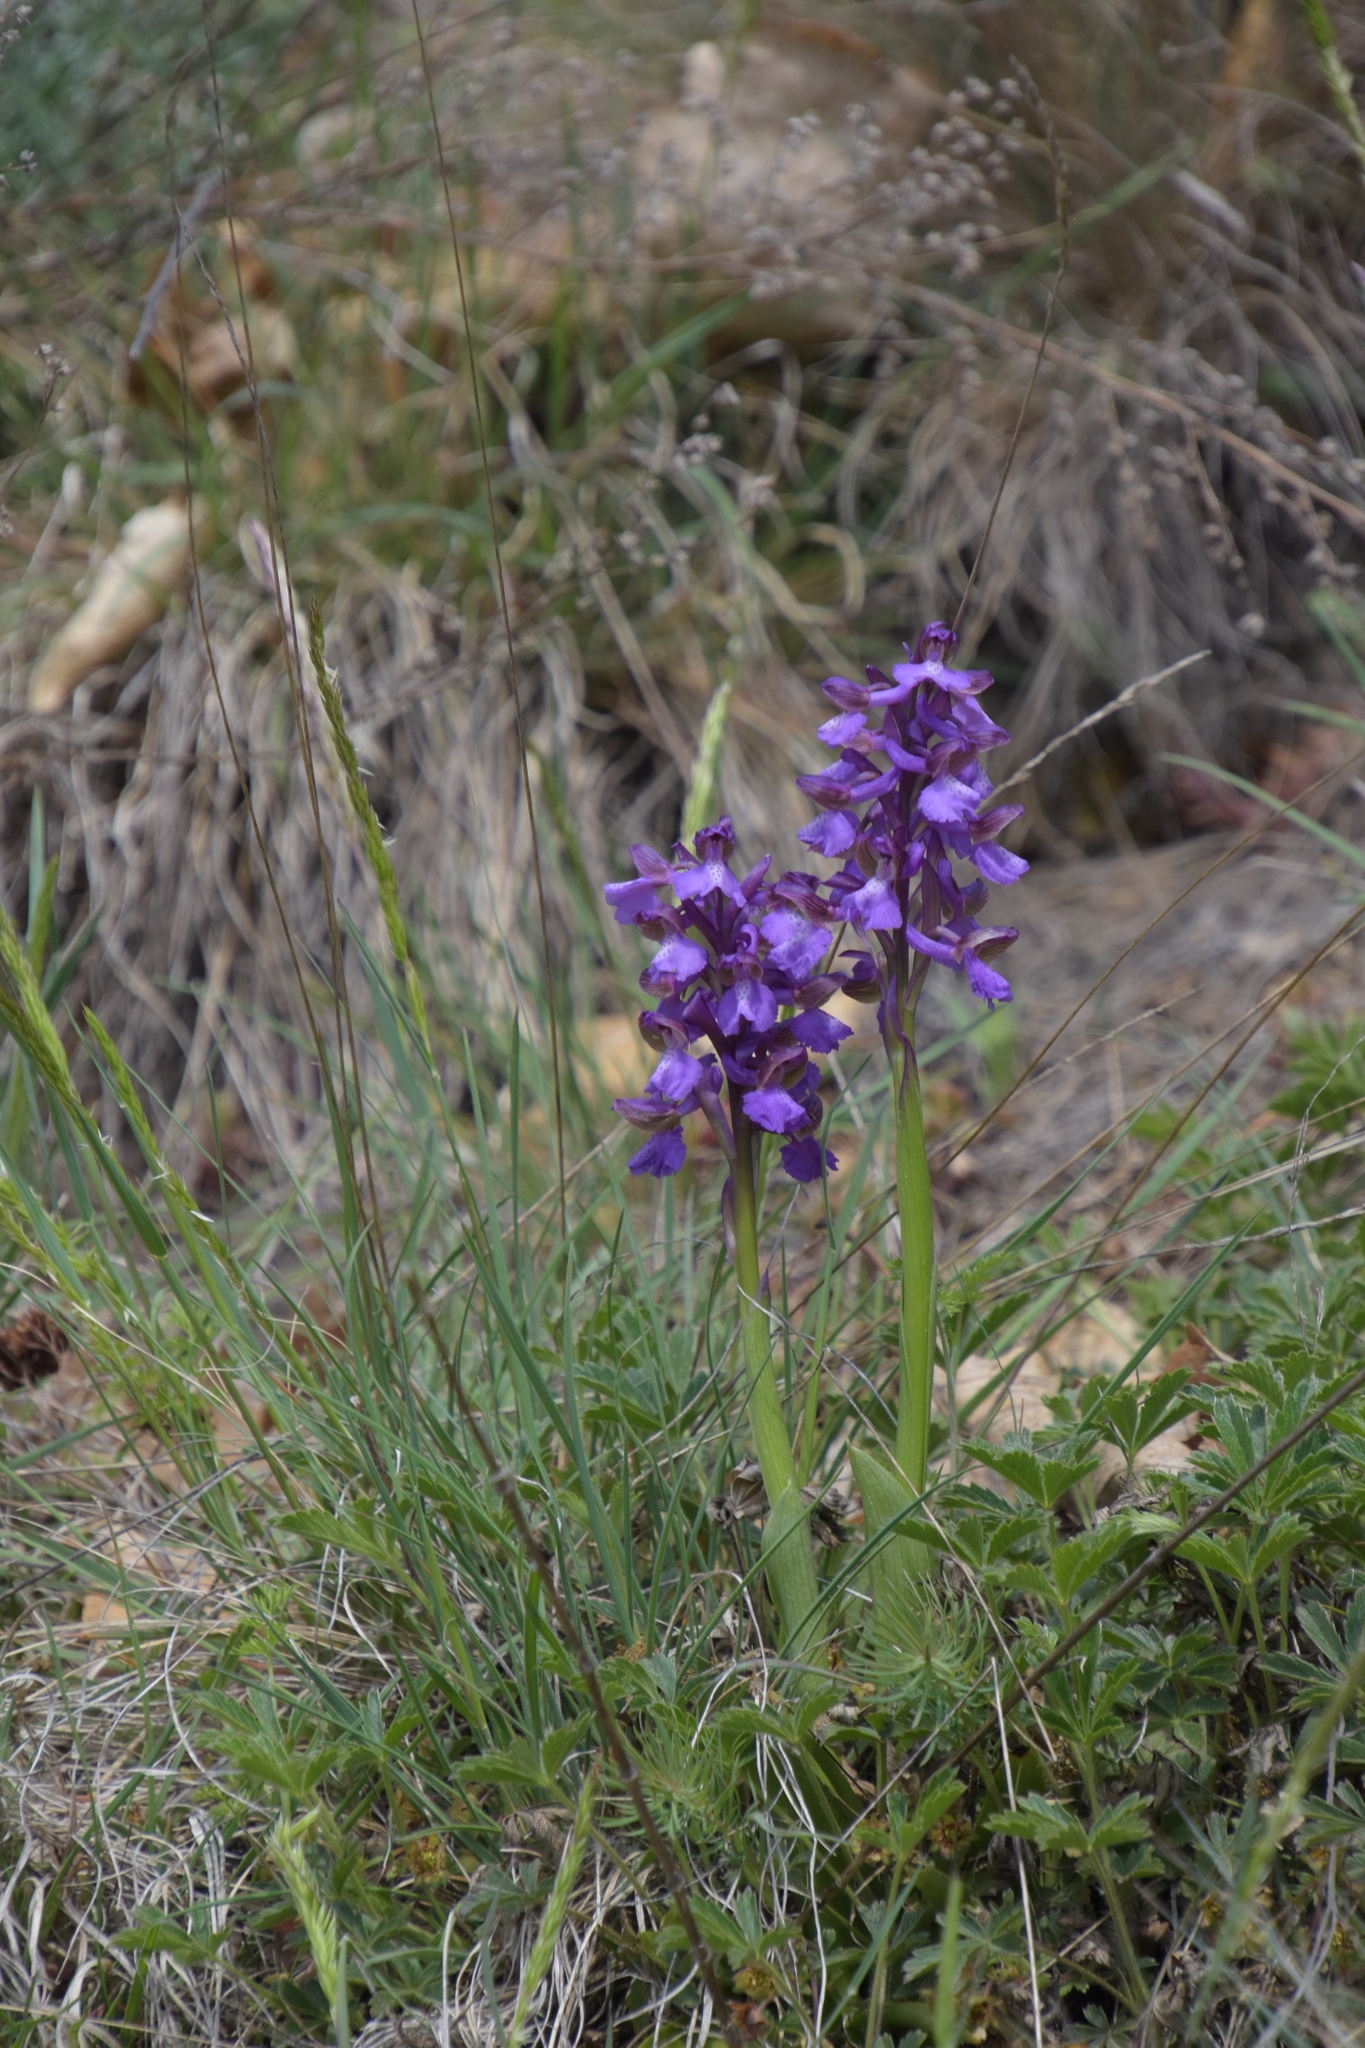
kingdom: Plantae
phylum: Tracheophyta
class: Liliopsida
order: Asparagales
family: Orchidaceae
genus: Anacamptis
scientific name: Anacamptis morio
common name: Green-winged orchid
